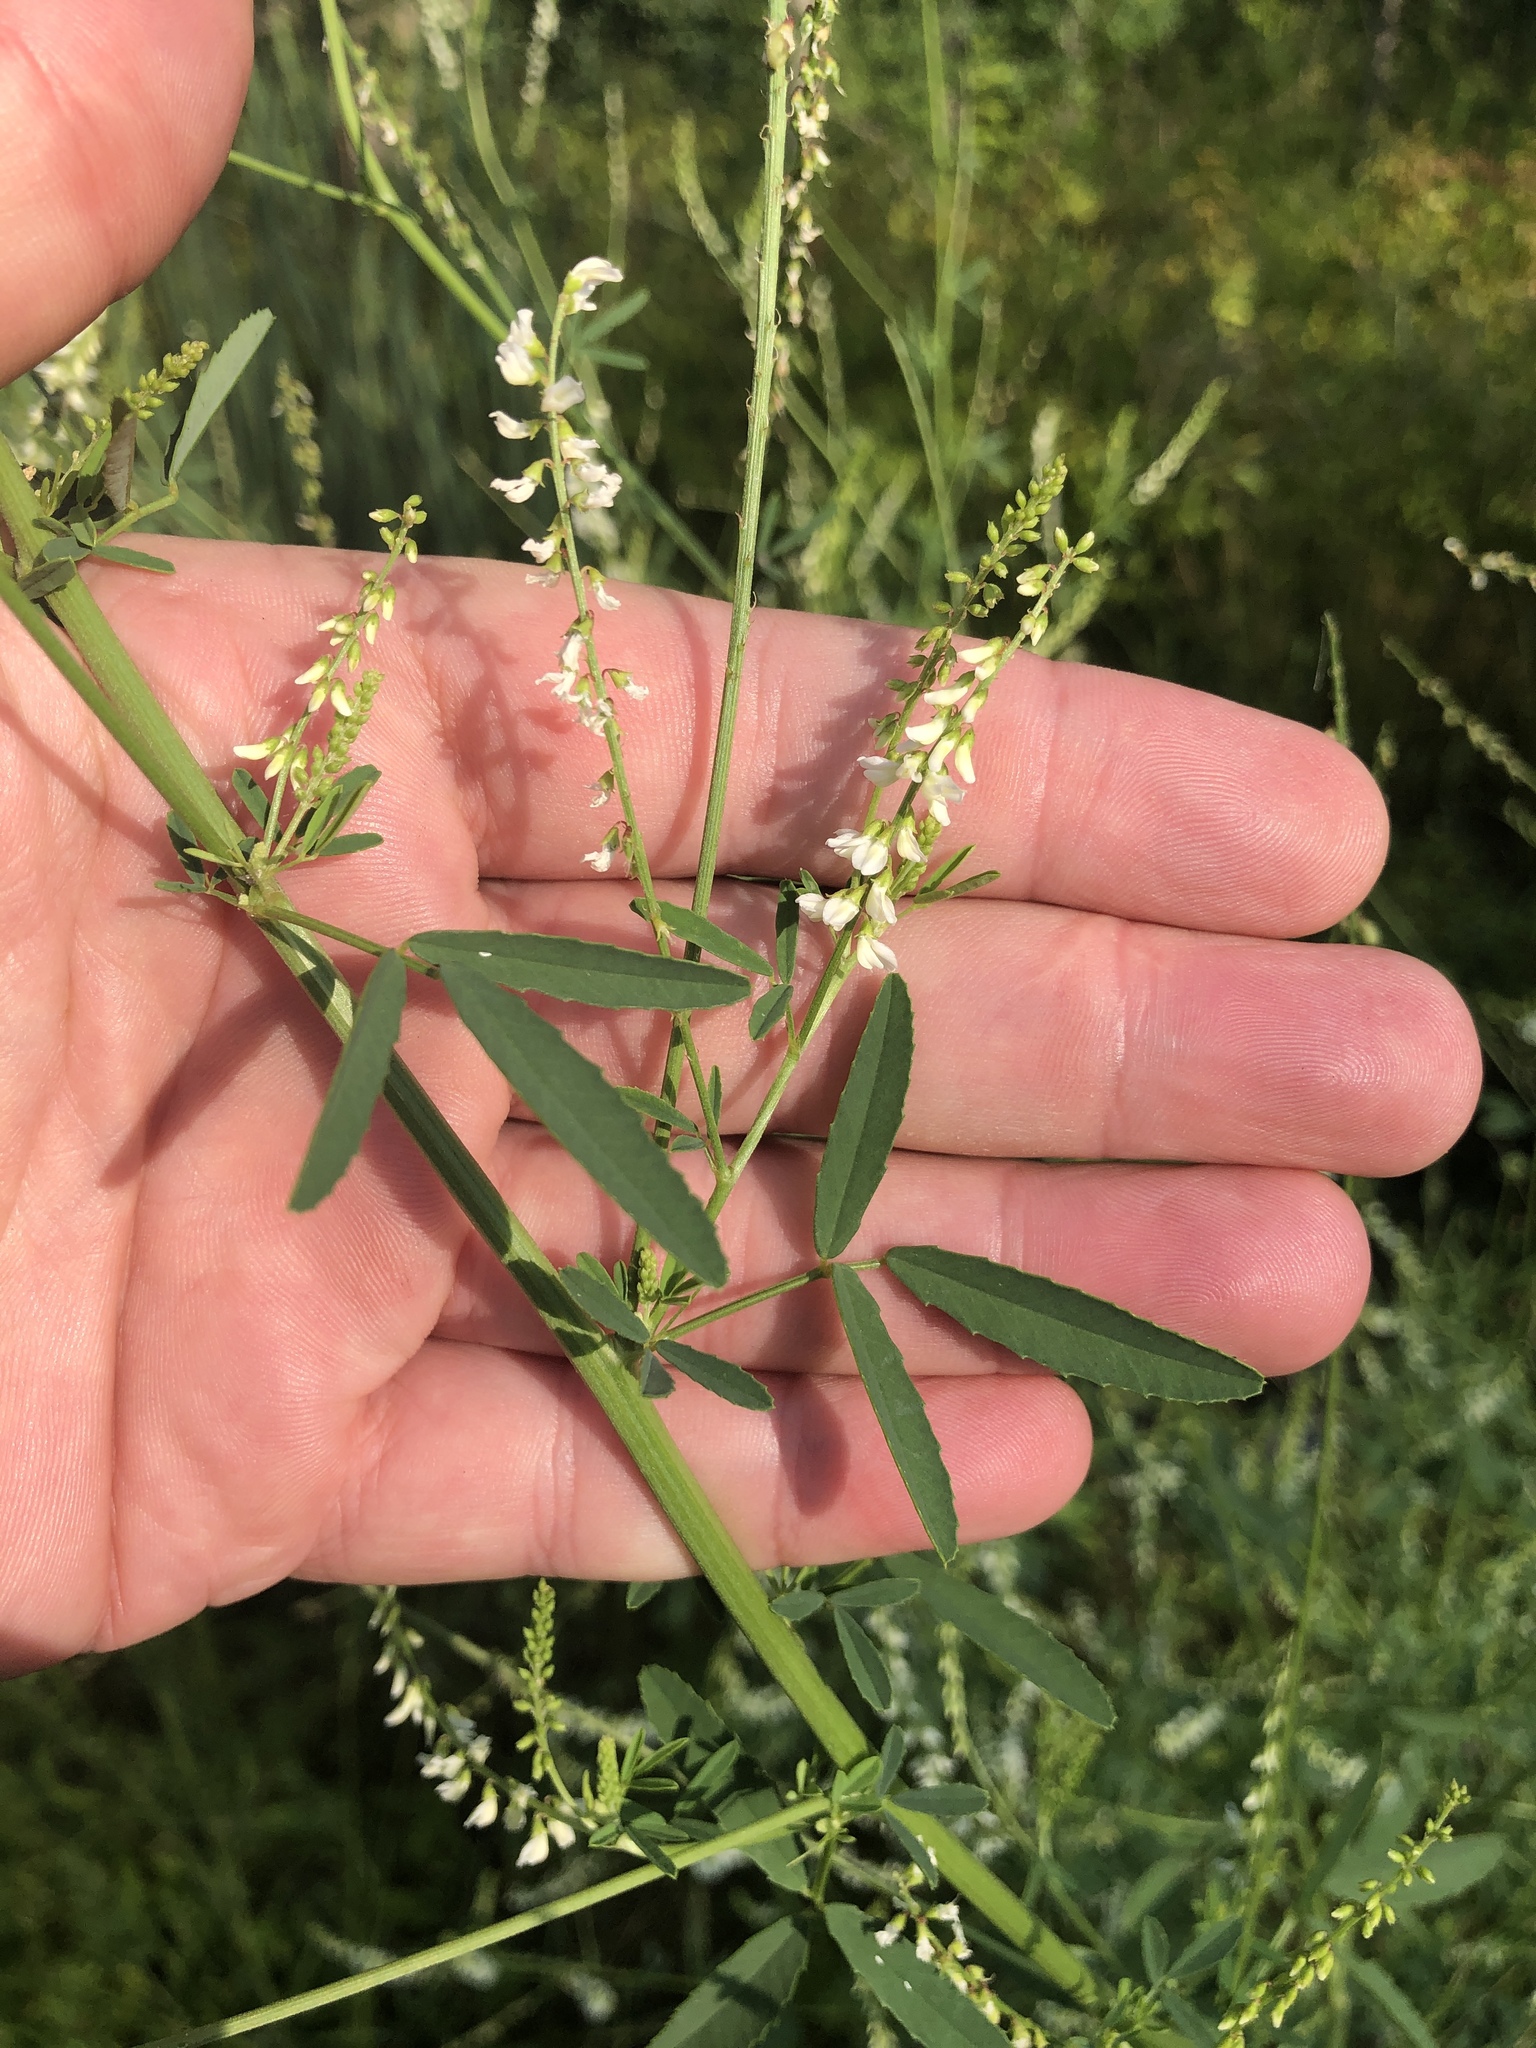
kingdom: Plantae
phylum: Tracheophyta
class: Magnoliopsida
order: Fabales
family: Fabaceae
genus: Melilotus
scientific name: Melilotus albus
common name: White melilot
